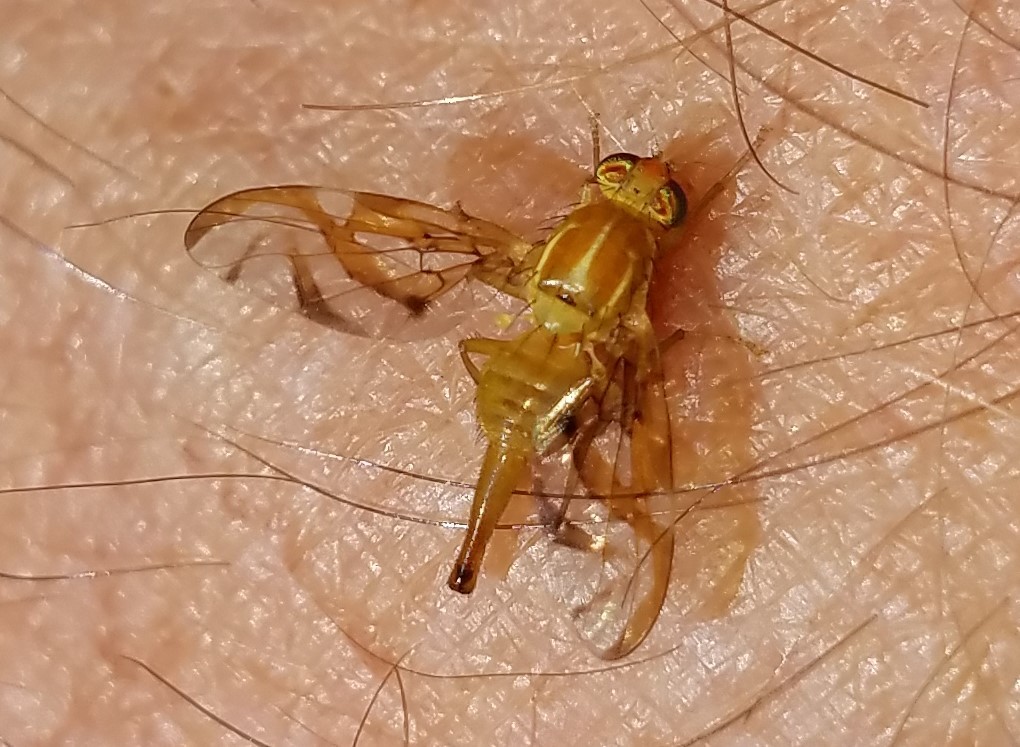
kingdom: Animalia
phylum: Arthropoda
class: Insecta
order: Diptera
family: Tephritidae
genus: Anastrepha
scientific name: Anastrepha ludens
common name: Mexican fruit fly
